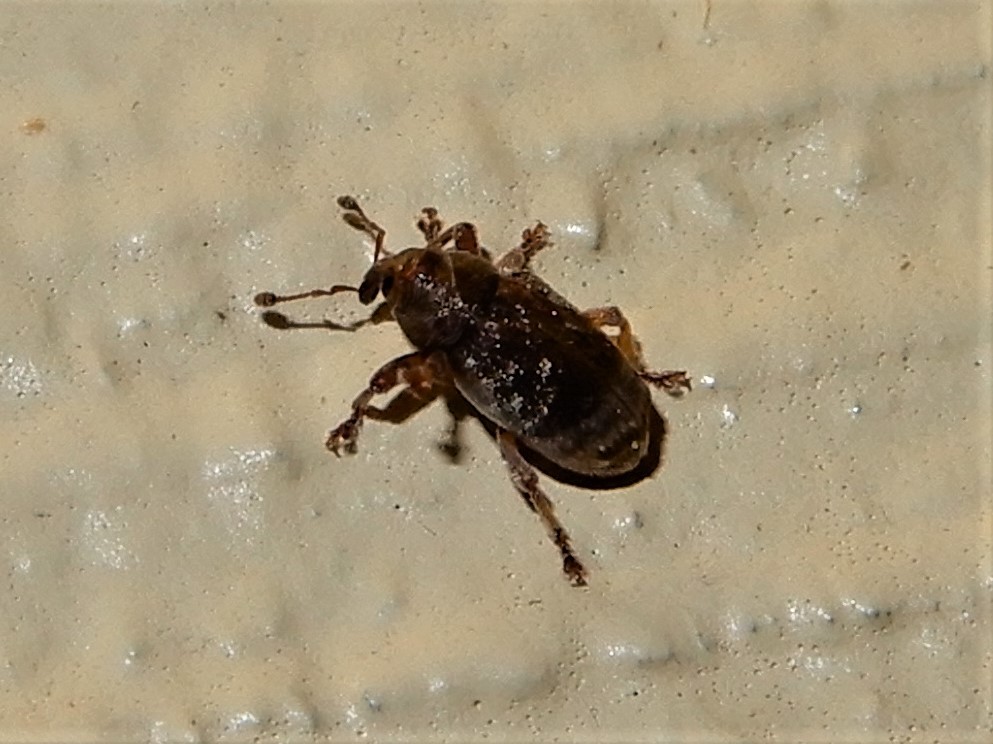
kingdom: Animalia
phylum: Arthropoda
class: Insecta
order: Coleoptera
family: Curculionidae
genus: Aneuma
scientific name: Aneuma fasciatum
